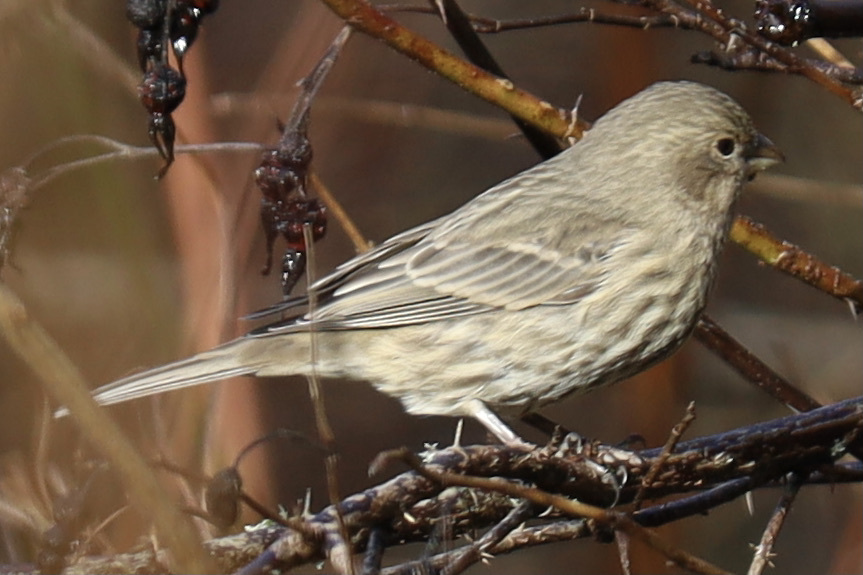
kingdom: Animalia
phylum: Chordata
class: Aves
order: Passeriformes
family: Fringillidae
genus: Haemorhous
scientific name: Haemorhous mexicanus
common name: House finch
